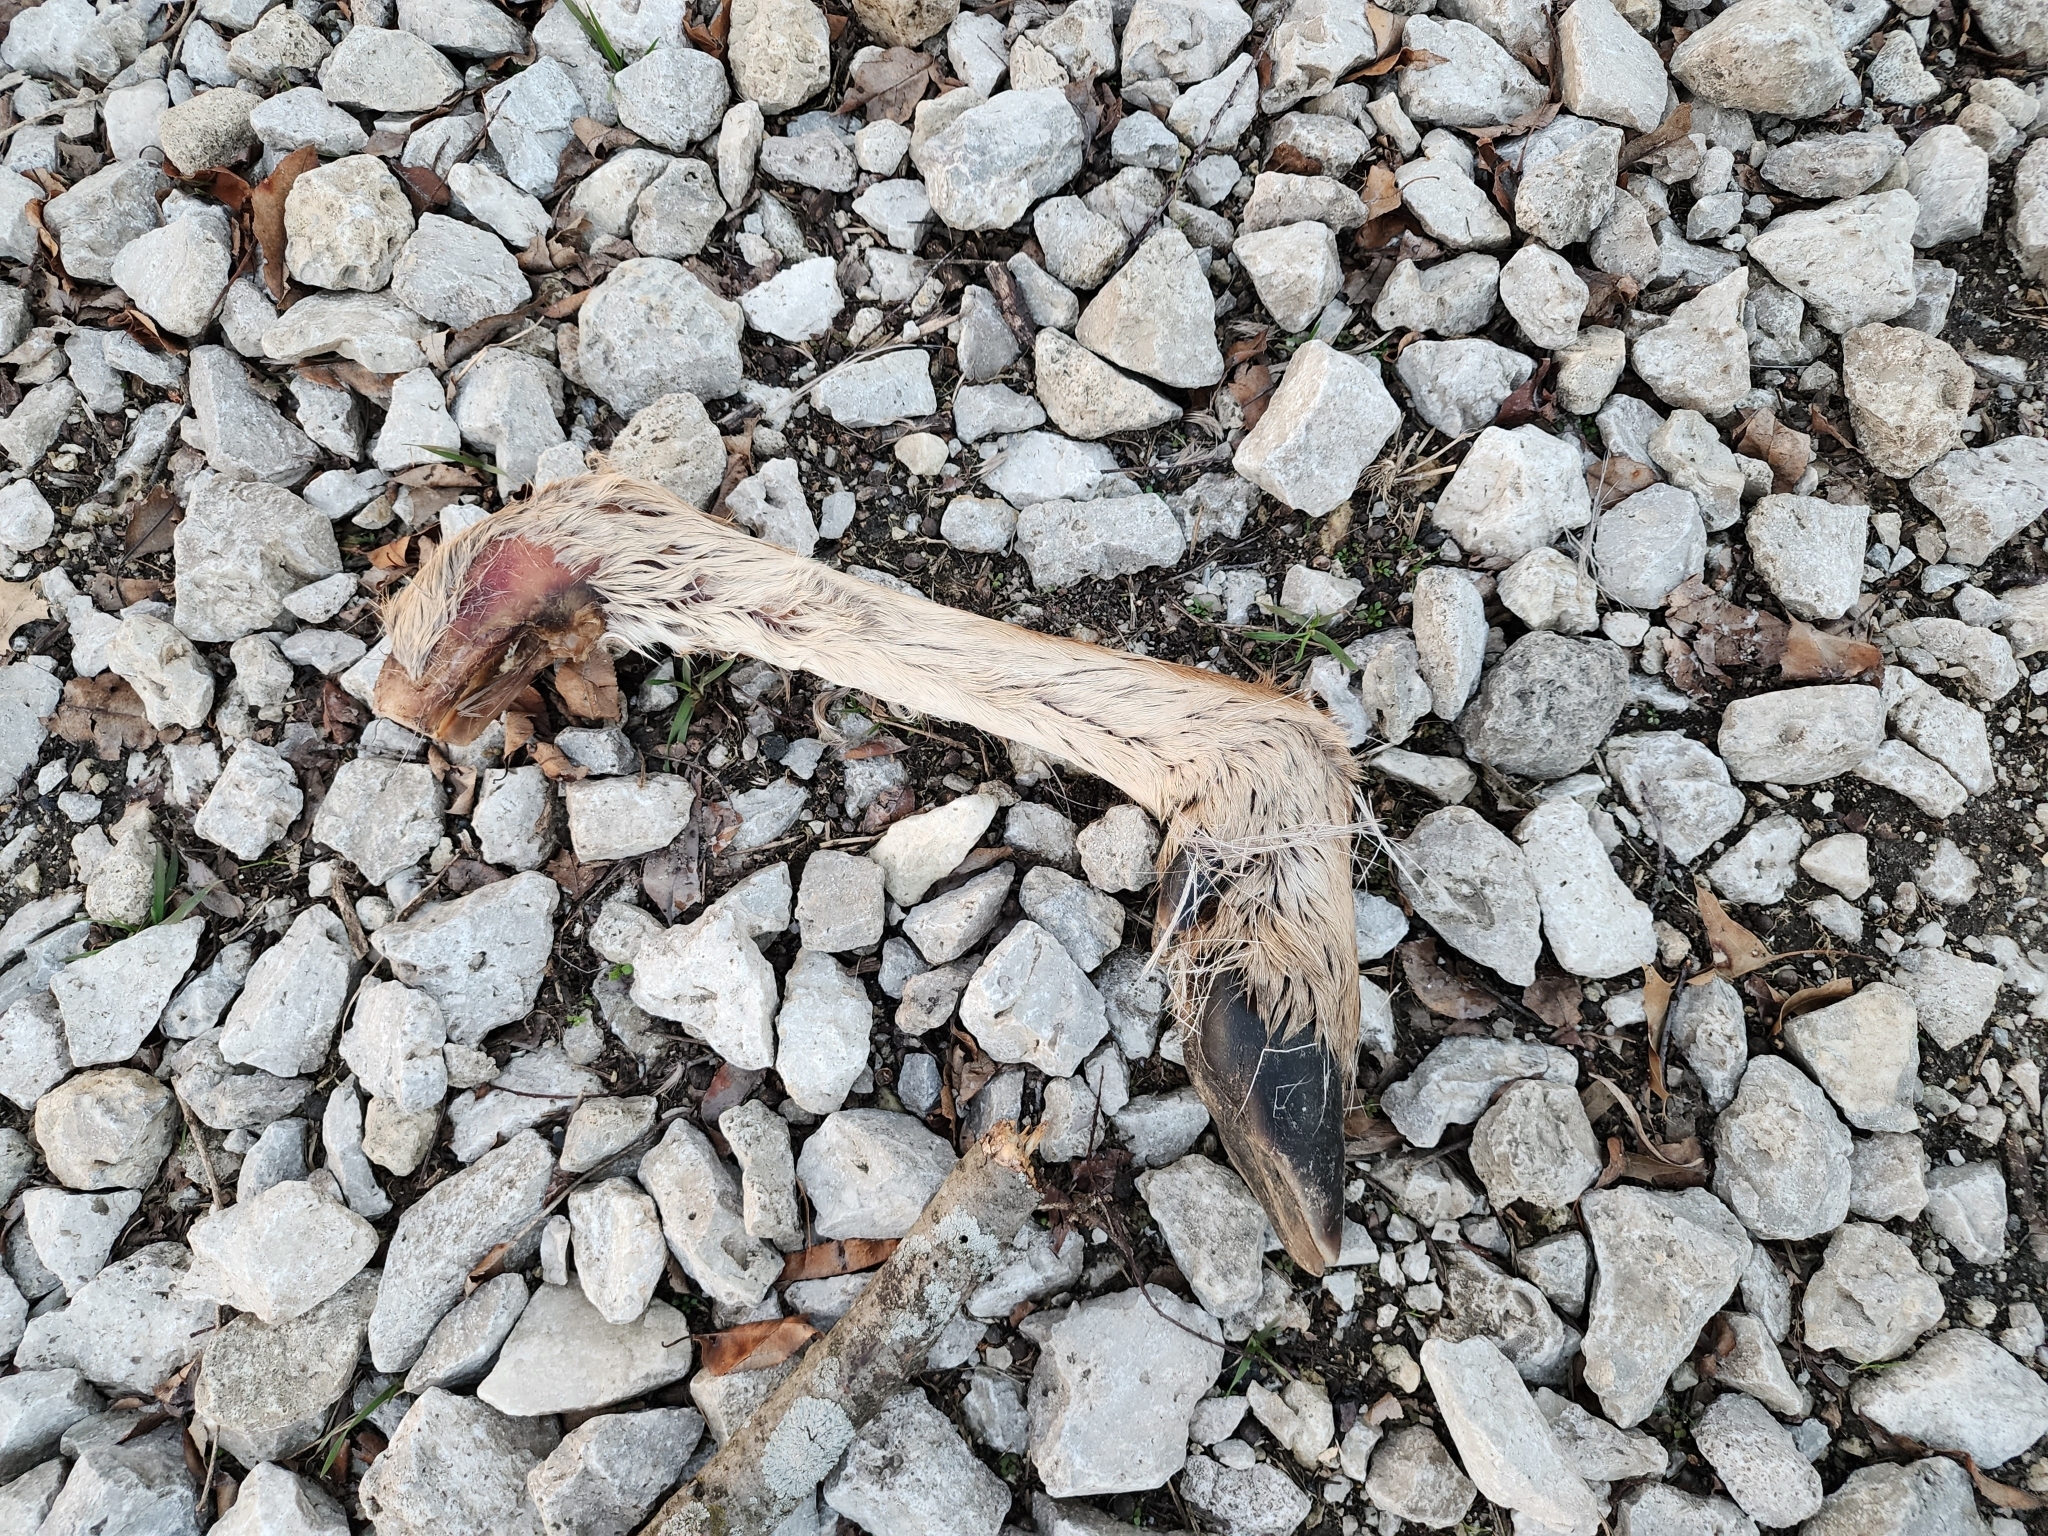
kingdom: Animalia
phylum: Chordata
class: Mammalia
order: Artiodactyla
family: Cervidae
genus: Odocoileus
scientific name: Odocoileus virginianus
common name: White-tailed deer
